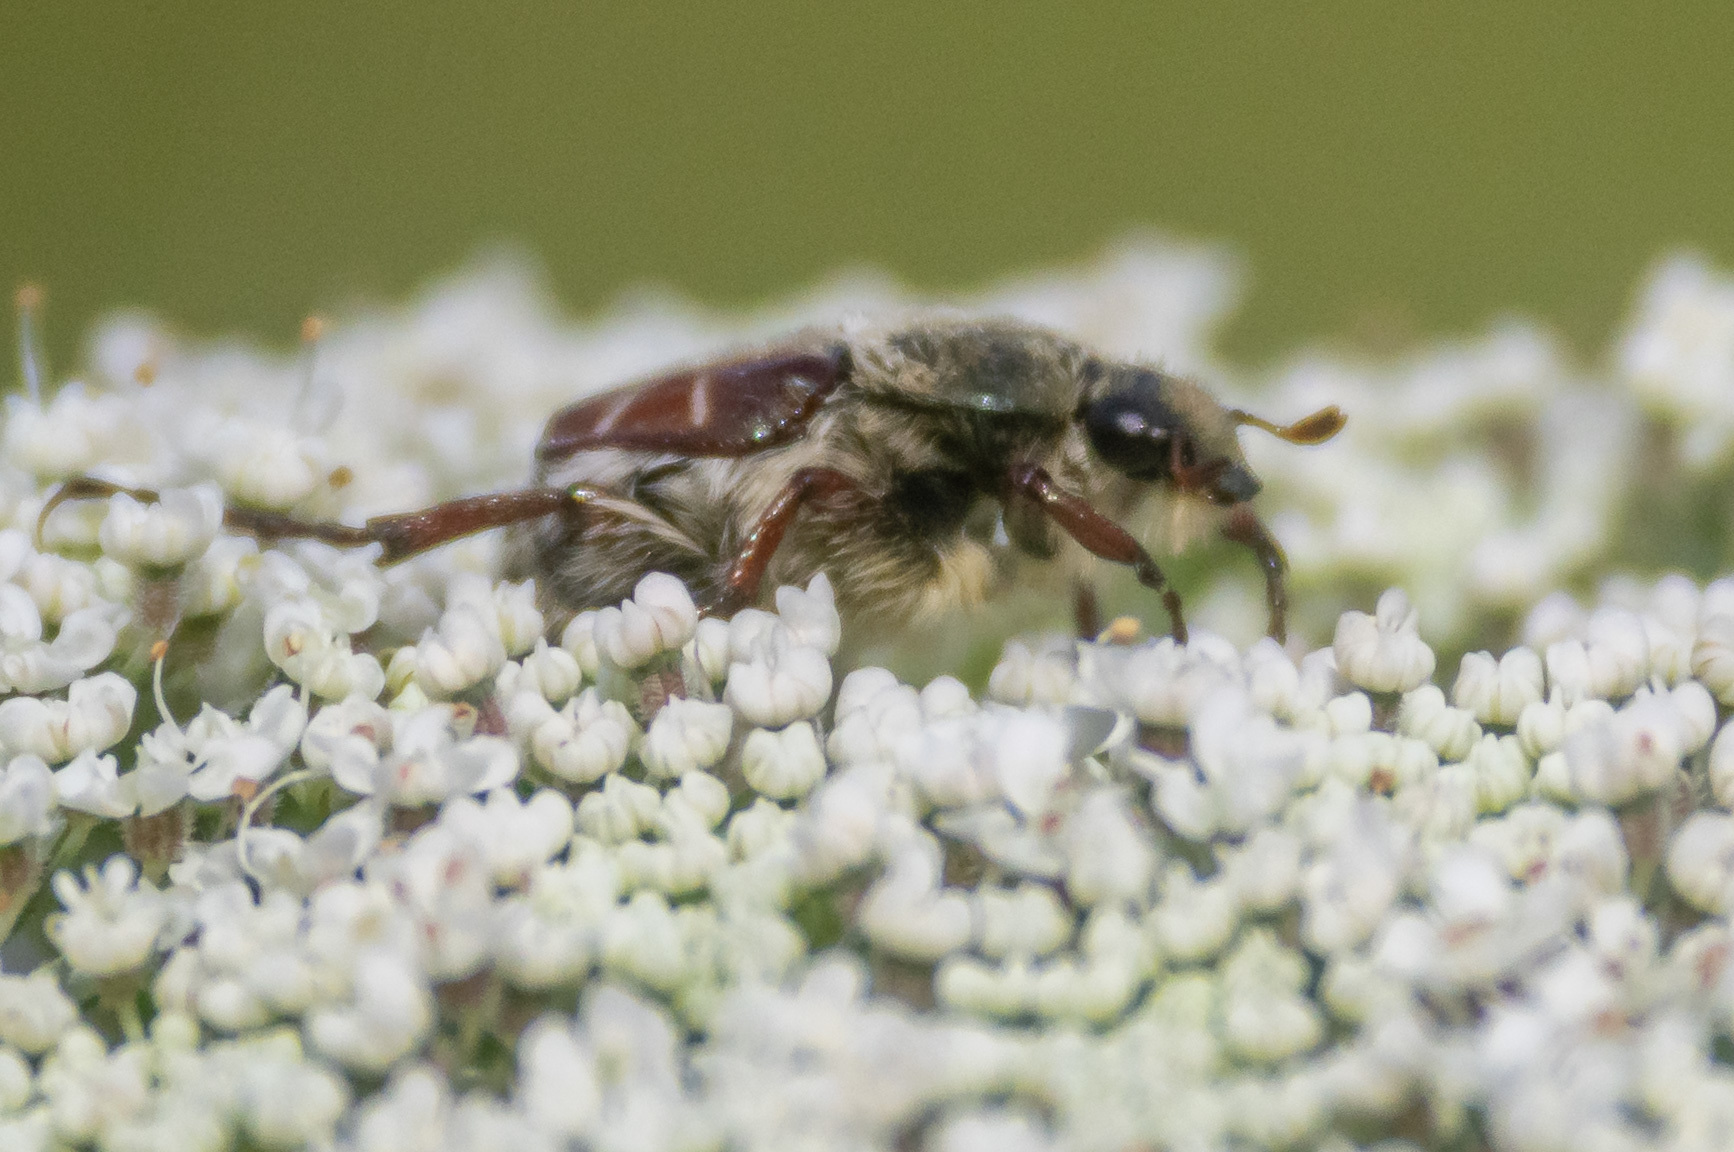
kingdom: Animalia
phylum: Arthropoda
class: Insecta
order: Coleoptera
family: Scarabaeidae
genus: Trichiotinus
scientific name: Trichiotinus piger
